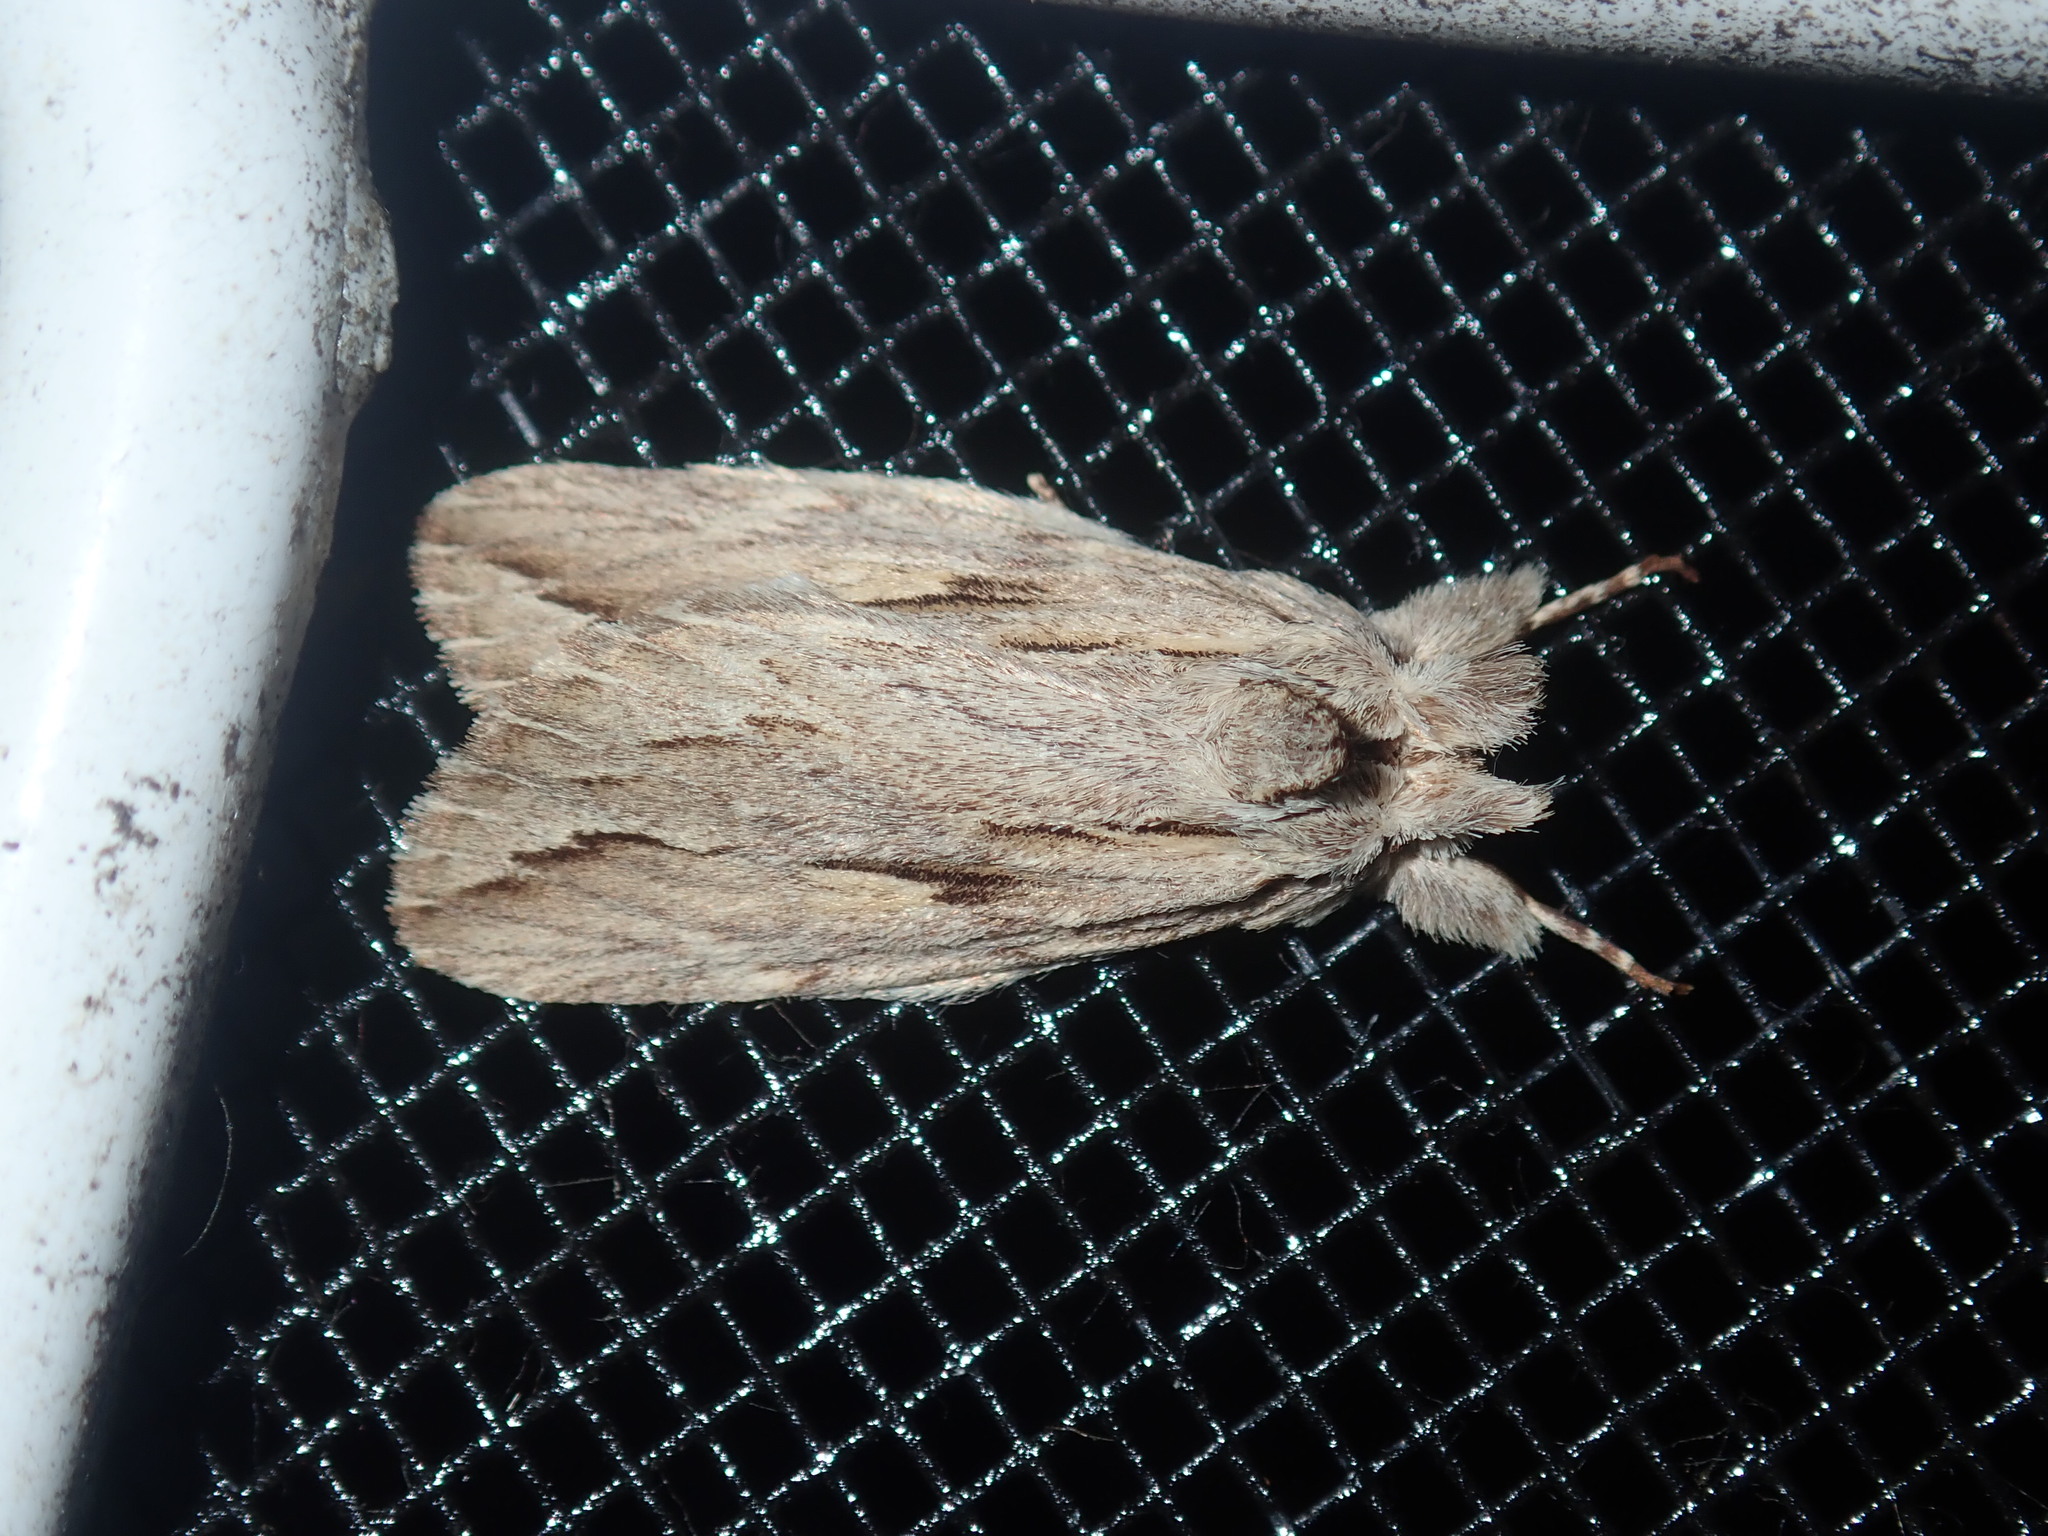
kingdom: Animalia
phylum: Arthropoda
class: Insecta
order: Lepidoptera
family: Notodontidae
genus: Ecnomodes
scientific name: Ecnomodes sagittaria
